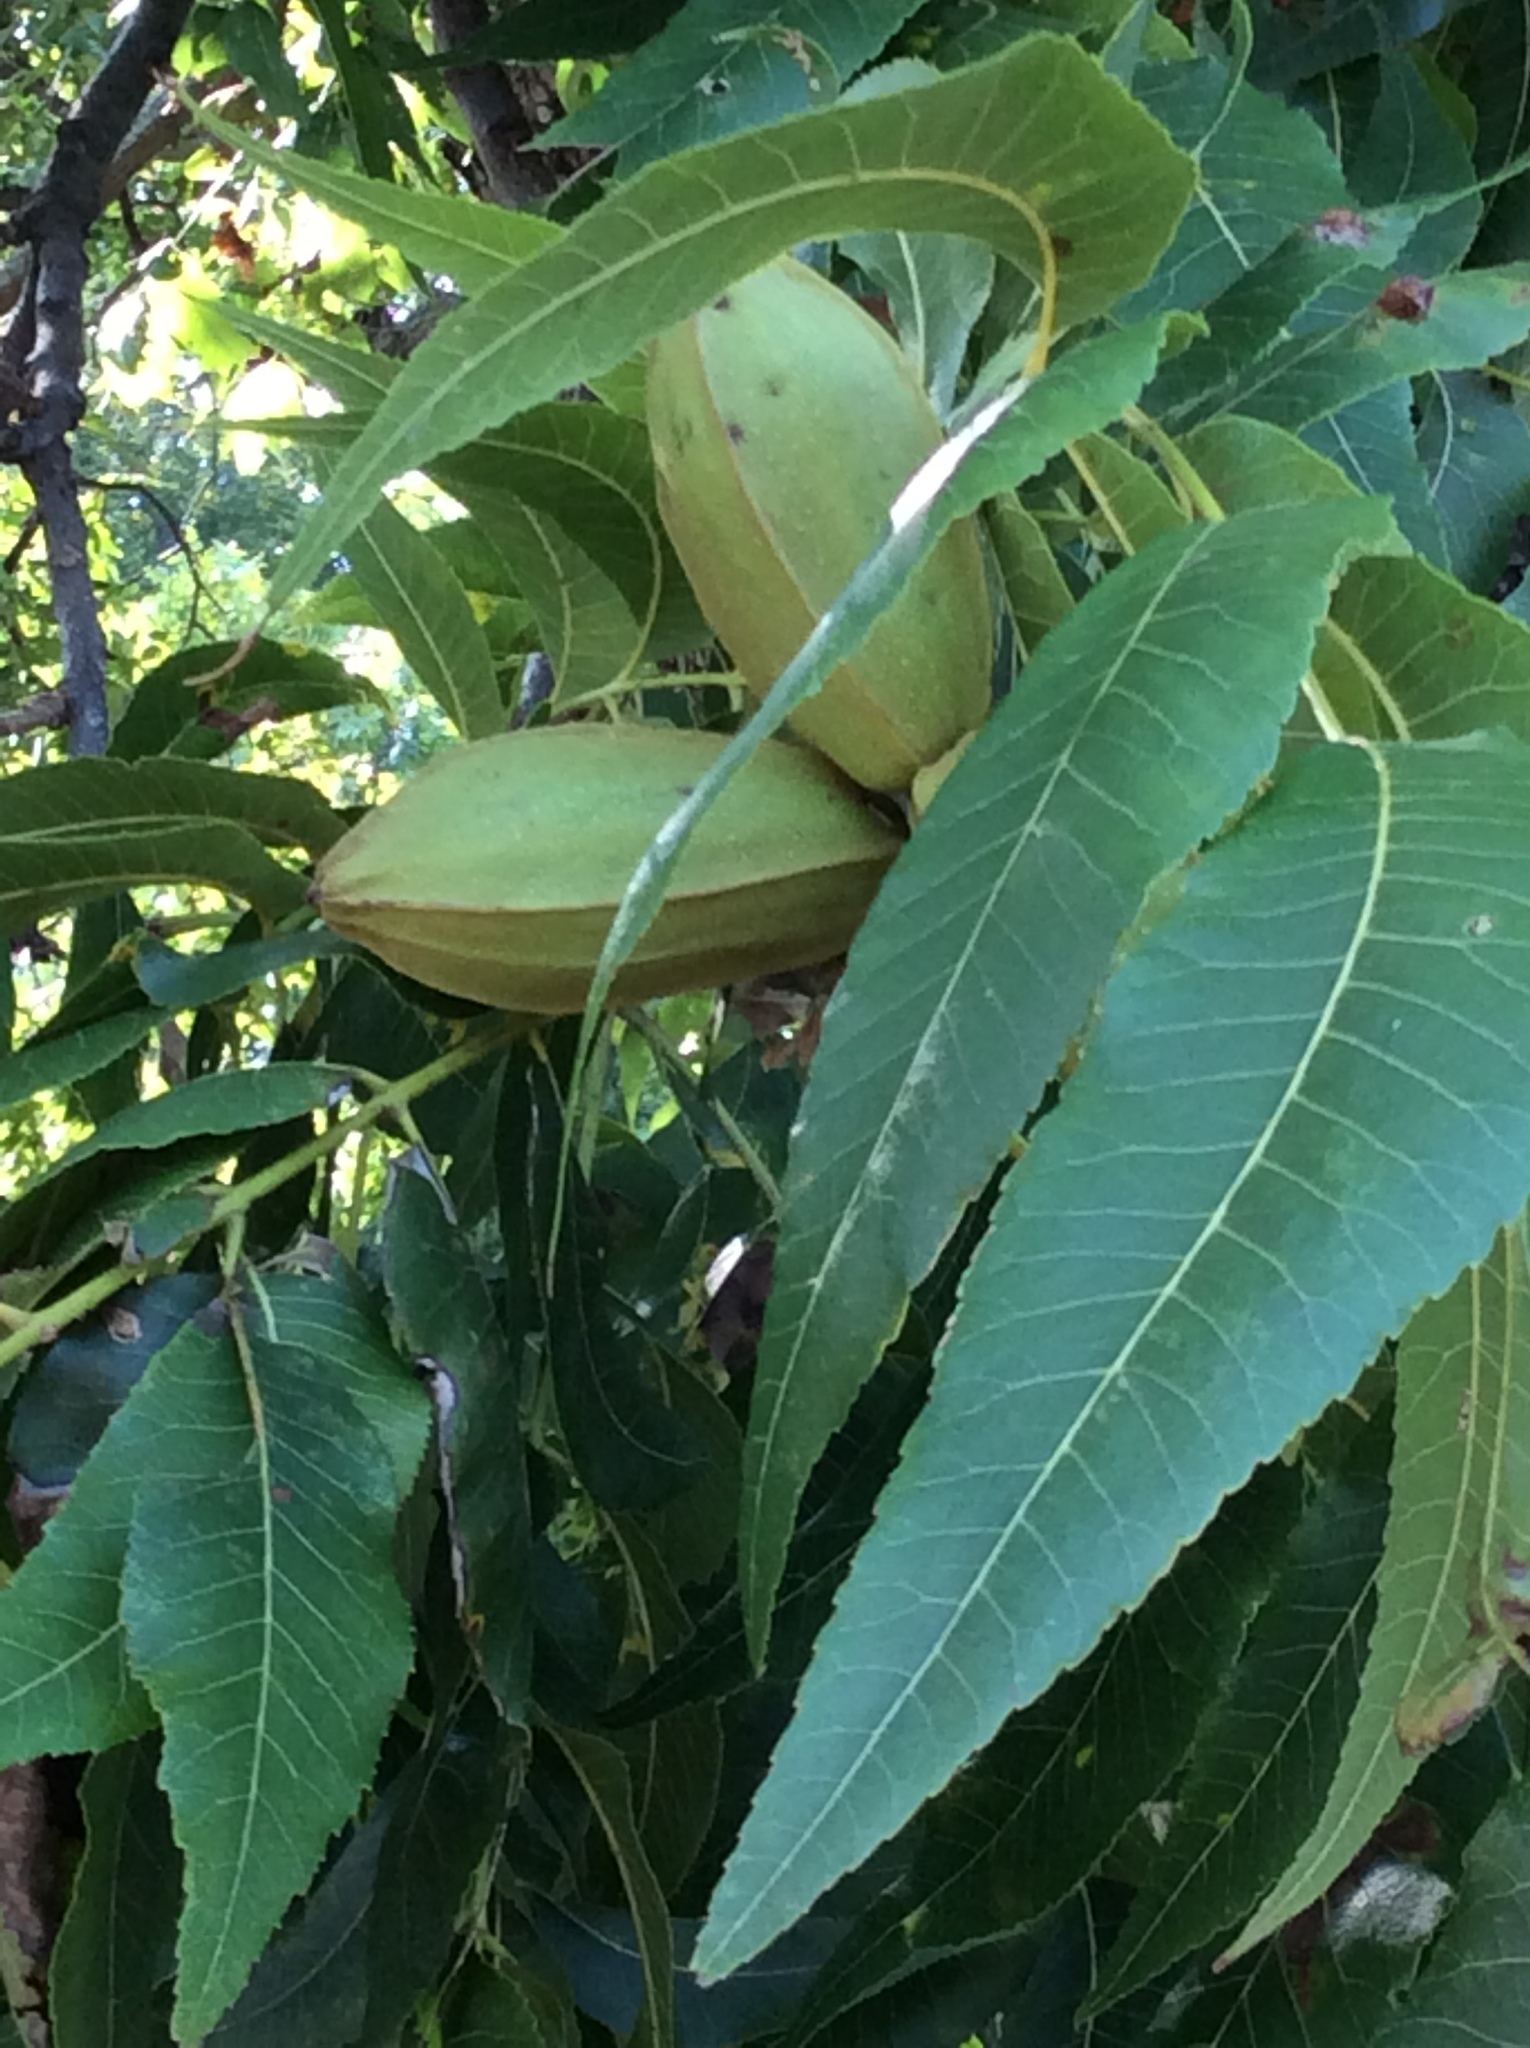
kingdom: Plantae
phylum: Tracheophyta
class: Magnoliopsida
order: Fagales
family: Juglandaceae
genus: Carya
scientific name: Carya illinoinensis
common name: Pecan
